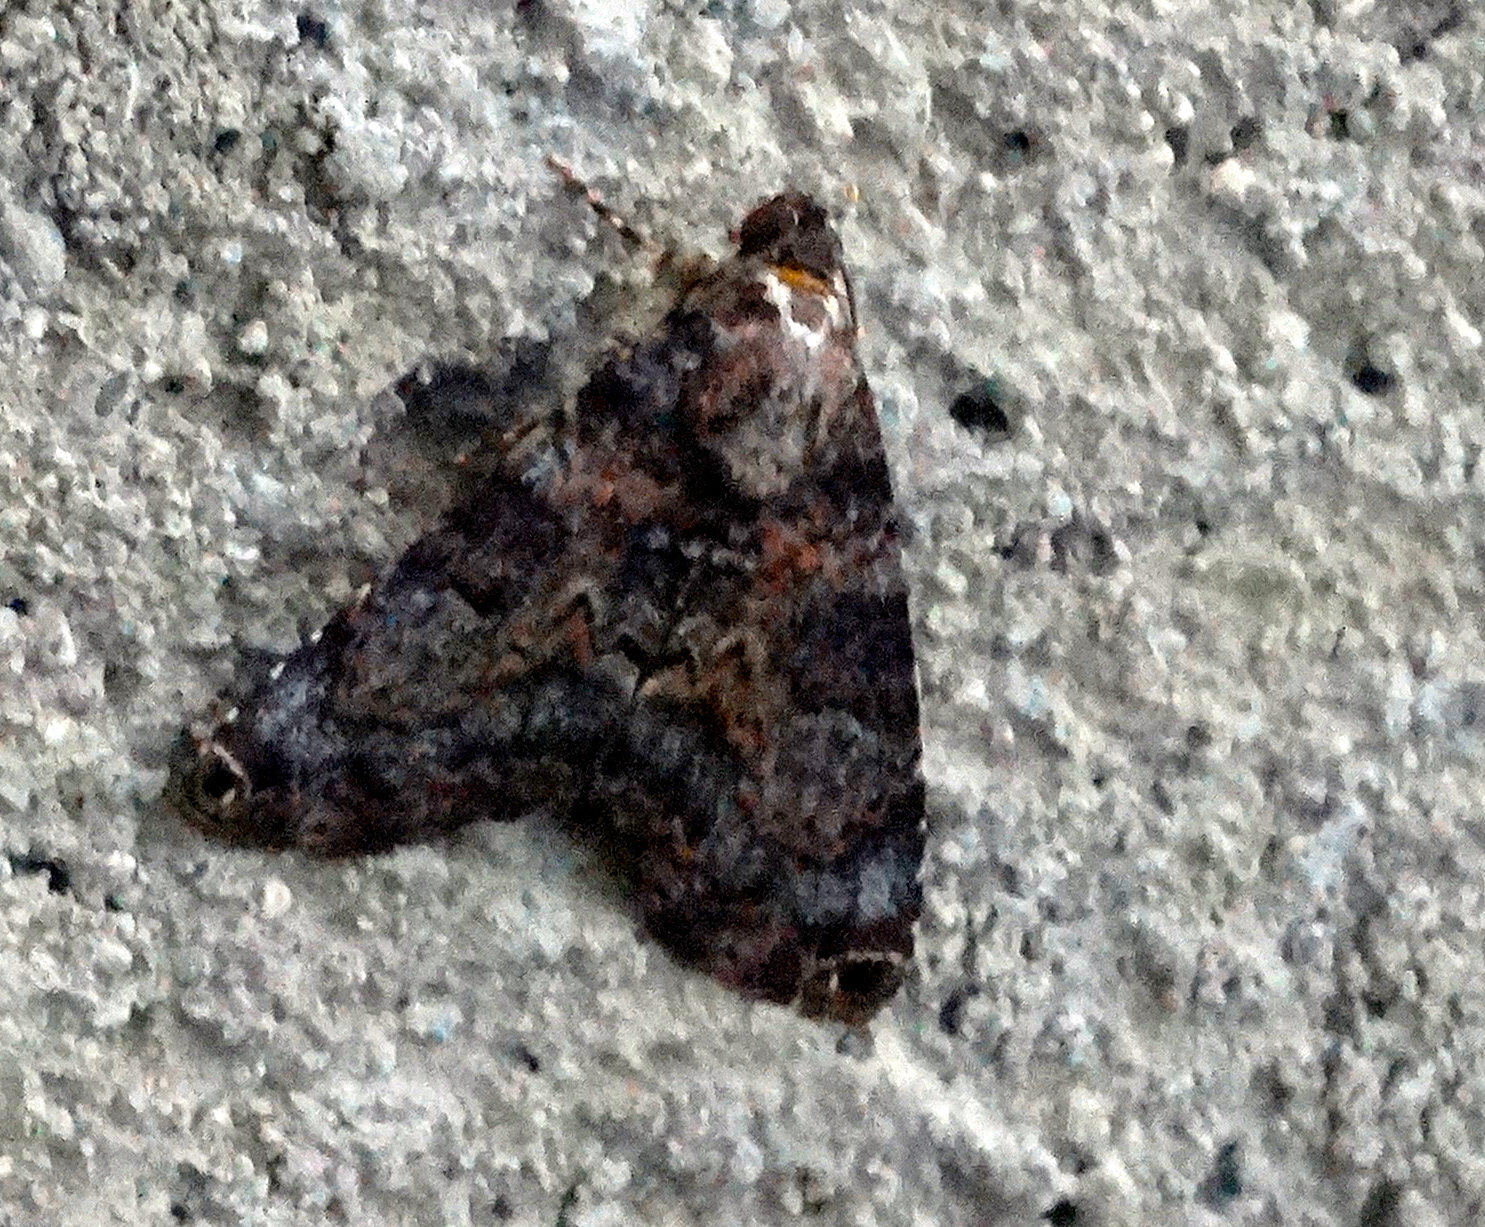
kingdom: Animalia
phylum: Arthropoda
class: Insecta
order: Lepidoptera
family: Erebidae
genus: Acolasis
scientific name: Acolasis
